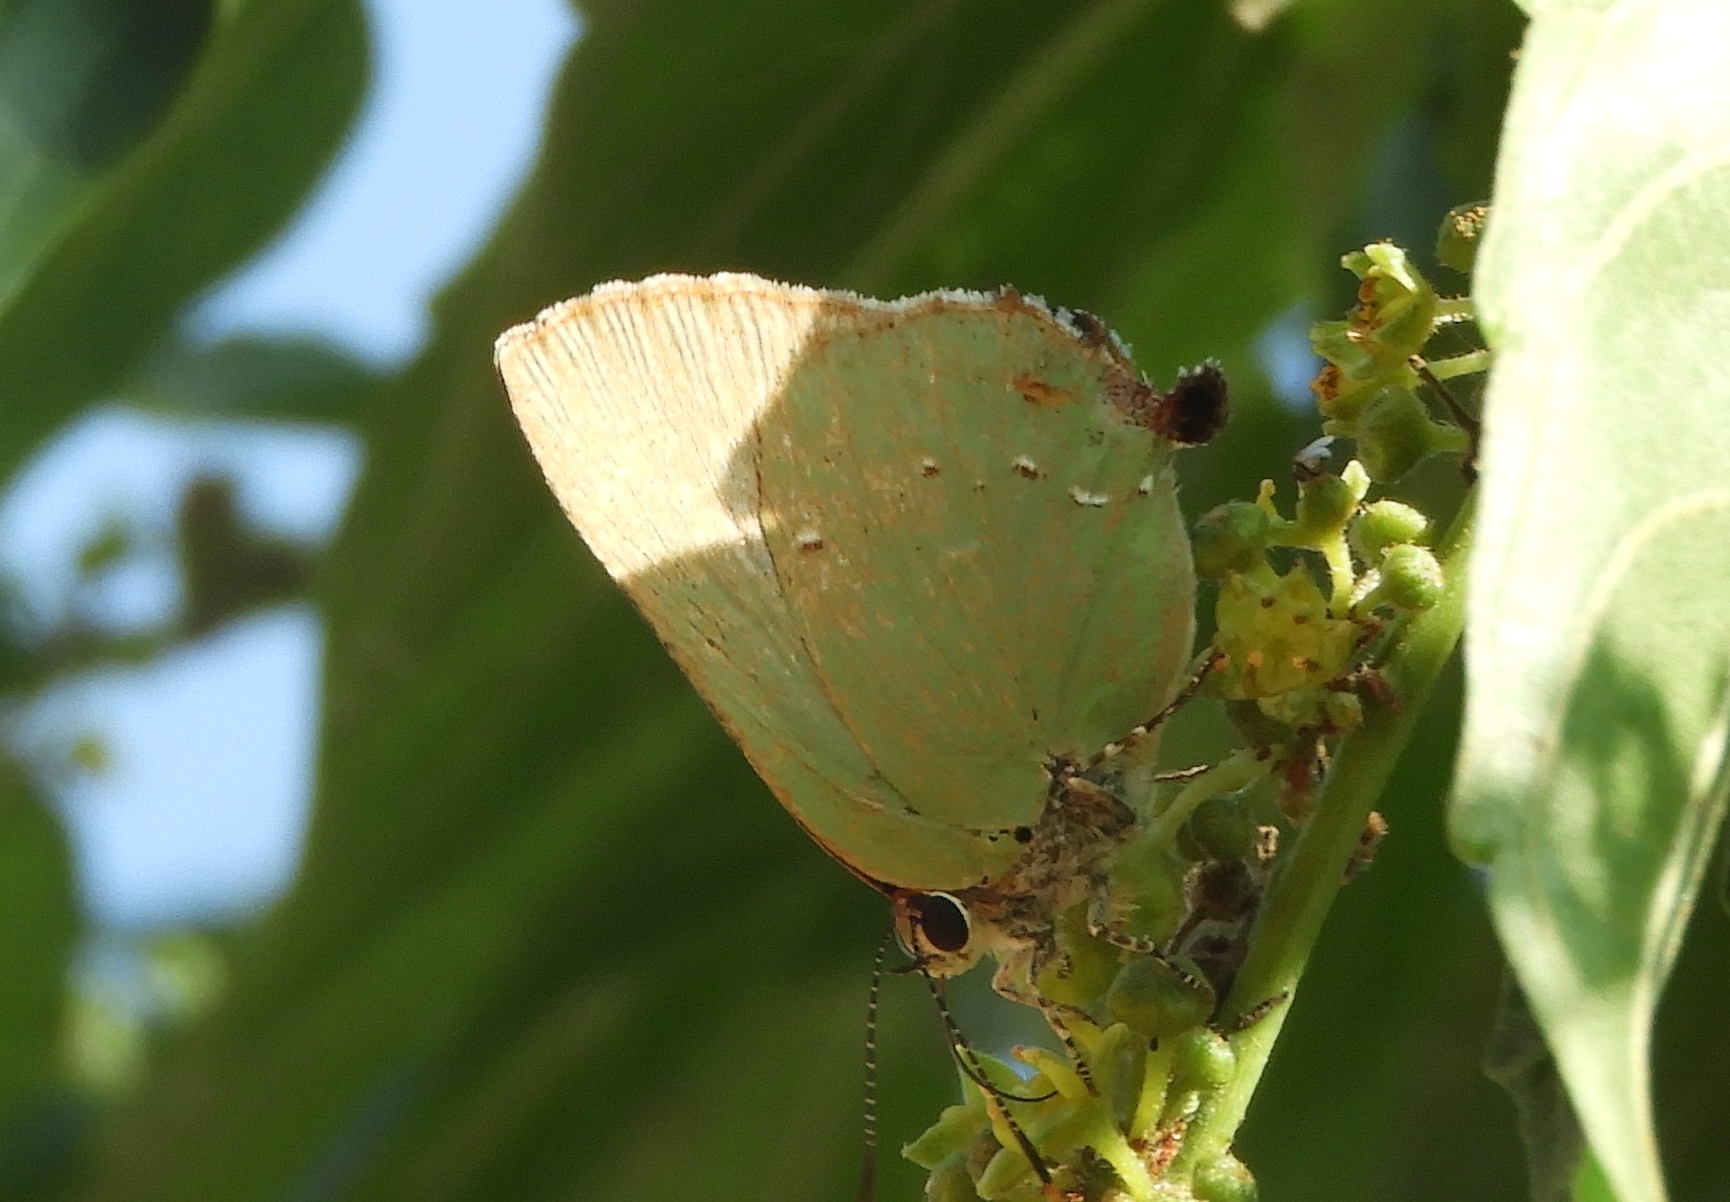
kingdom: Animalia
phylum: Arthropoda
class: Insecta
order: Lepidoptera
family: Lycaenidae
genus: Cyanophrys
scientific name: Cyanophrys
